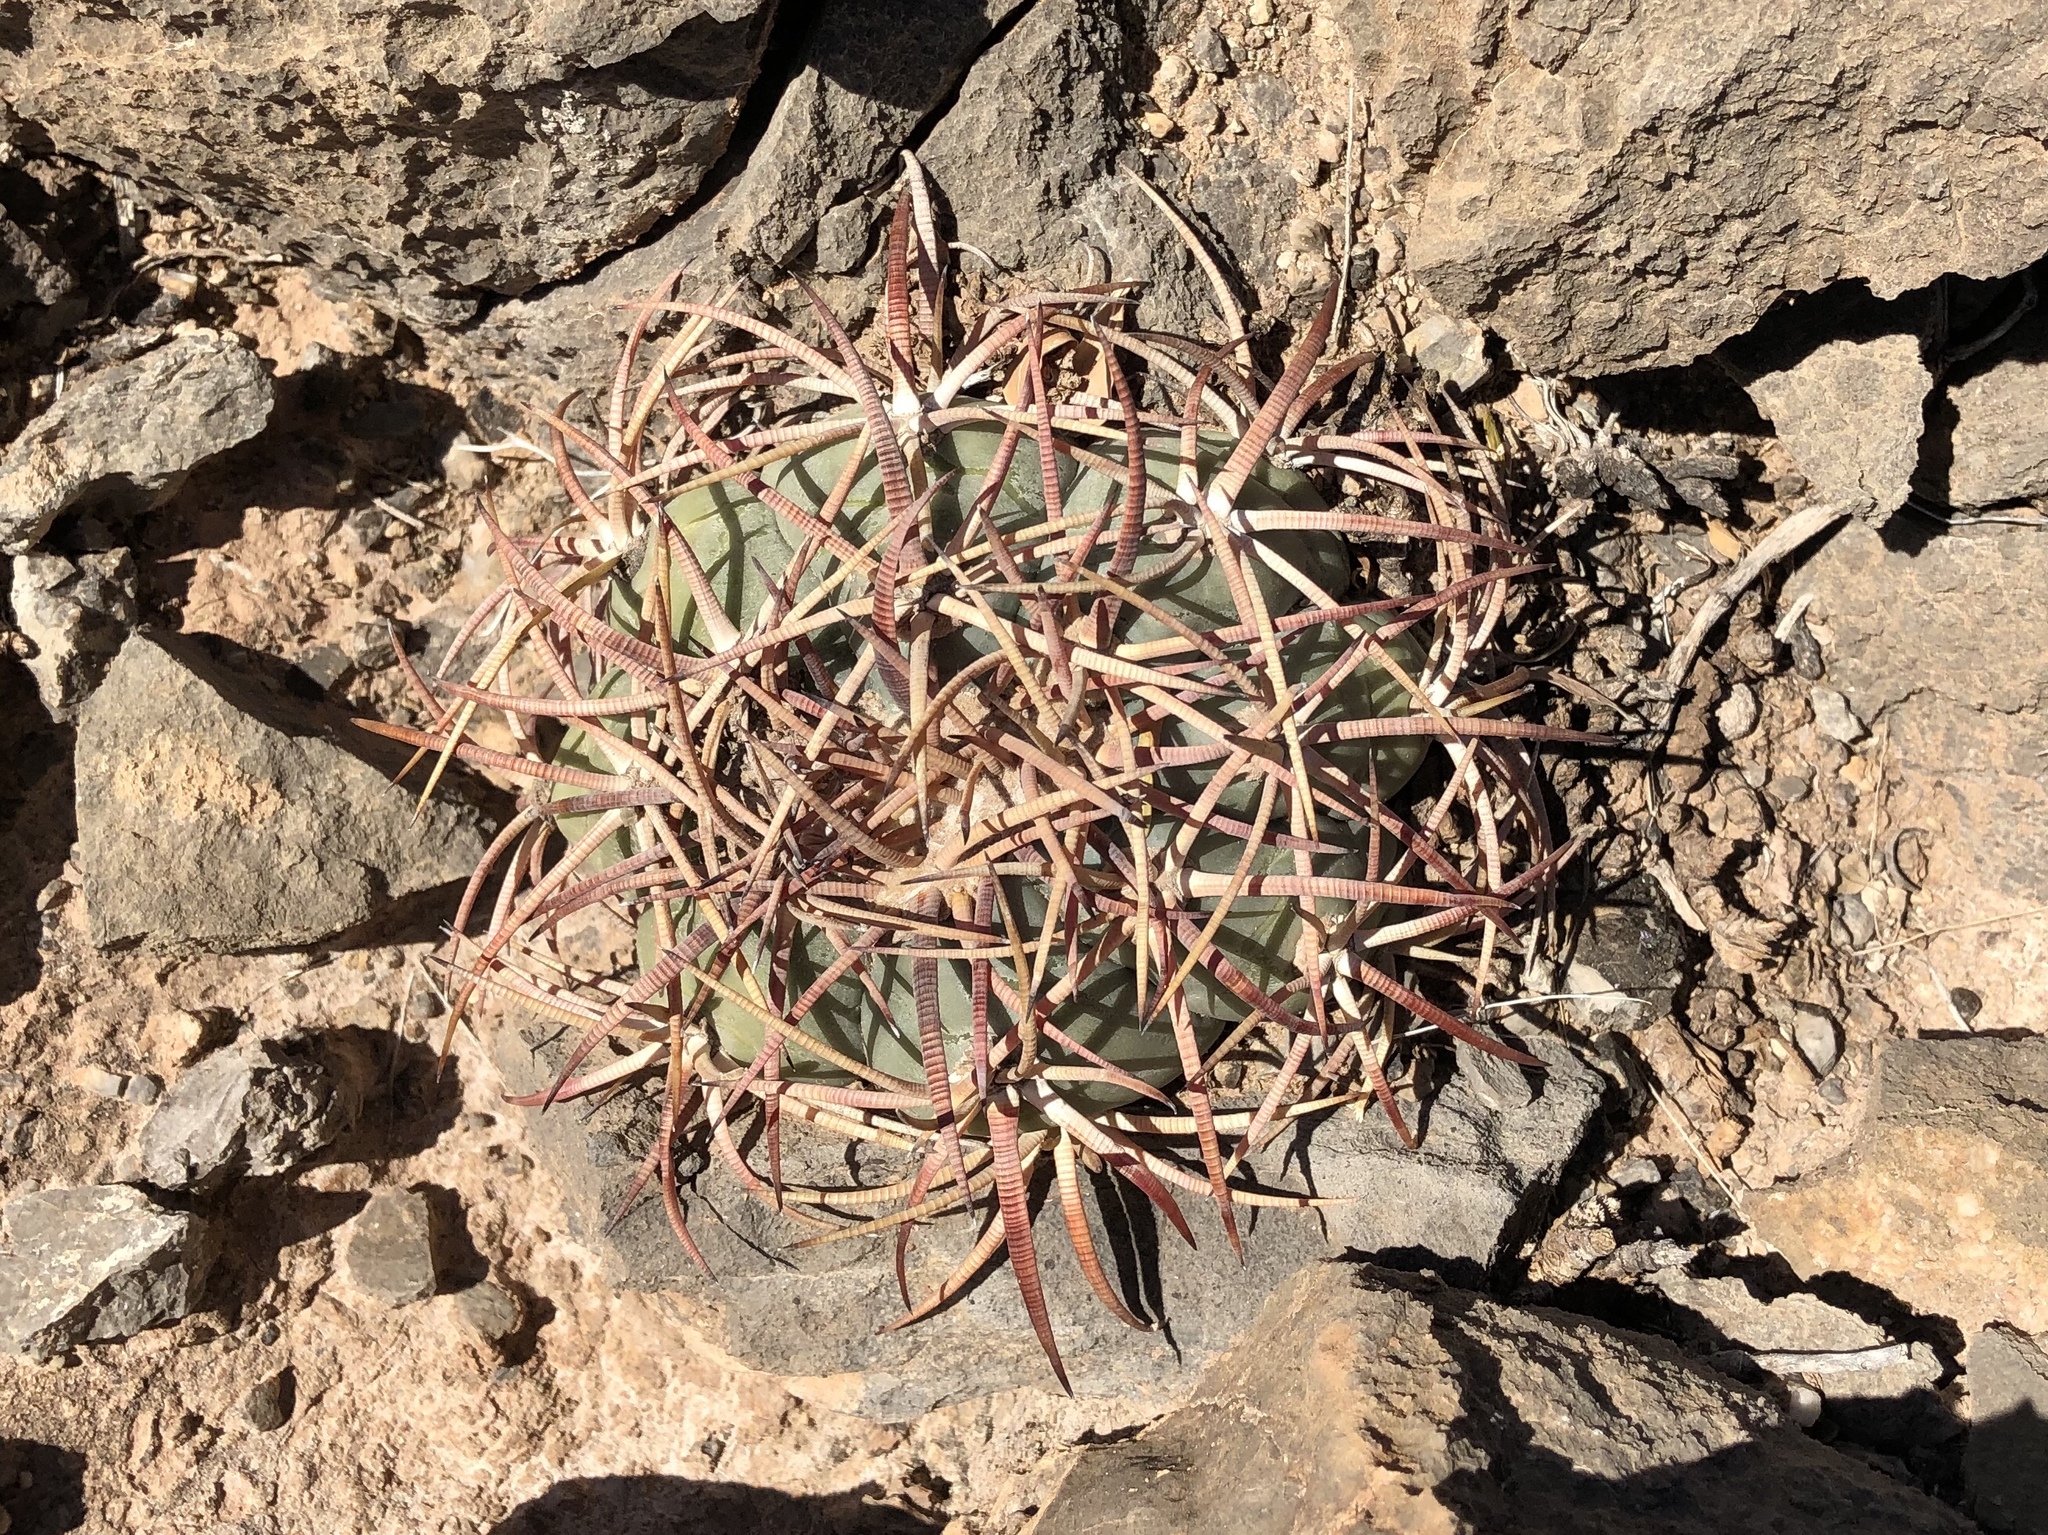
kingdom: Plantae
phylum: Tracheophyta
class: Magnoliopsida
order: Caryophyllales
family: Cactaceae
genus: Echinocactus
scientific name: Echinocactus horizonthalonius
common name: Devilshead
